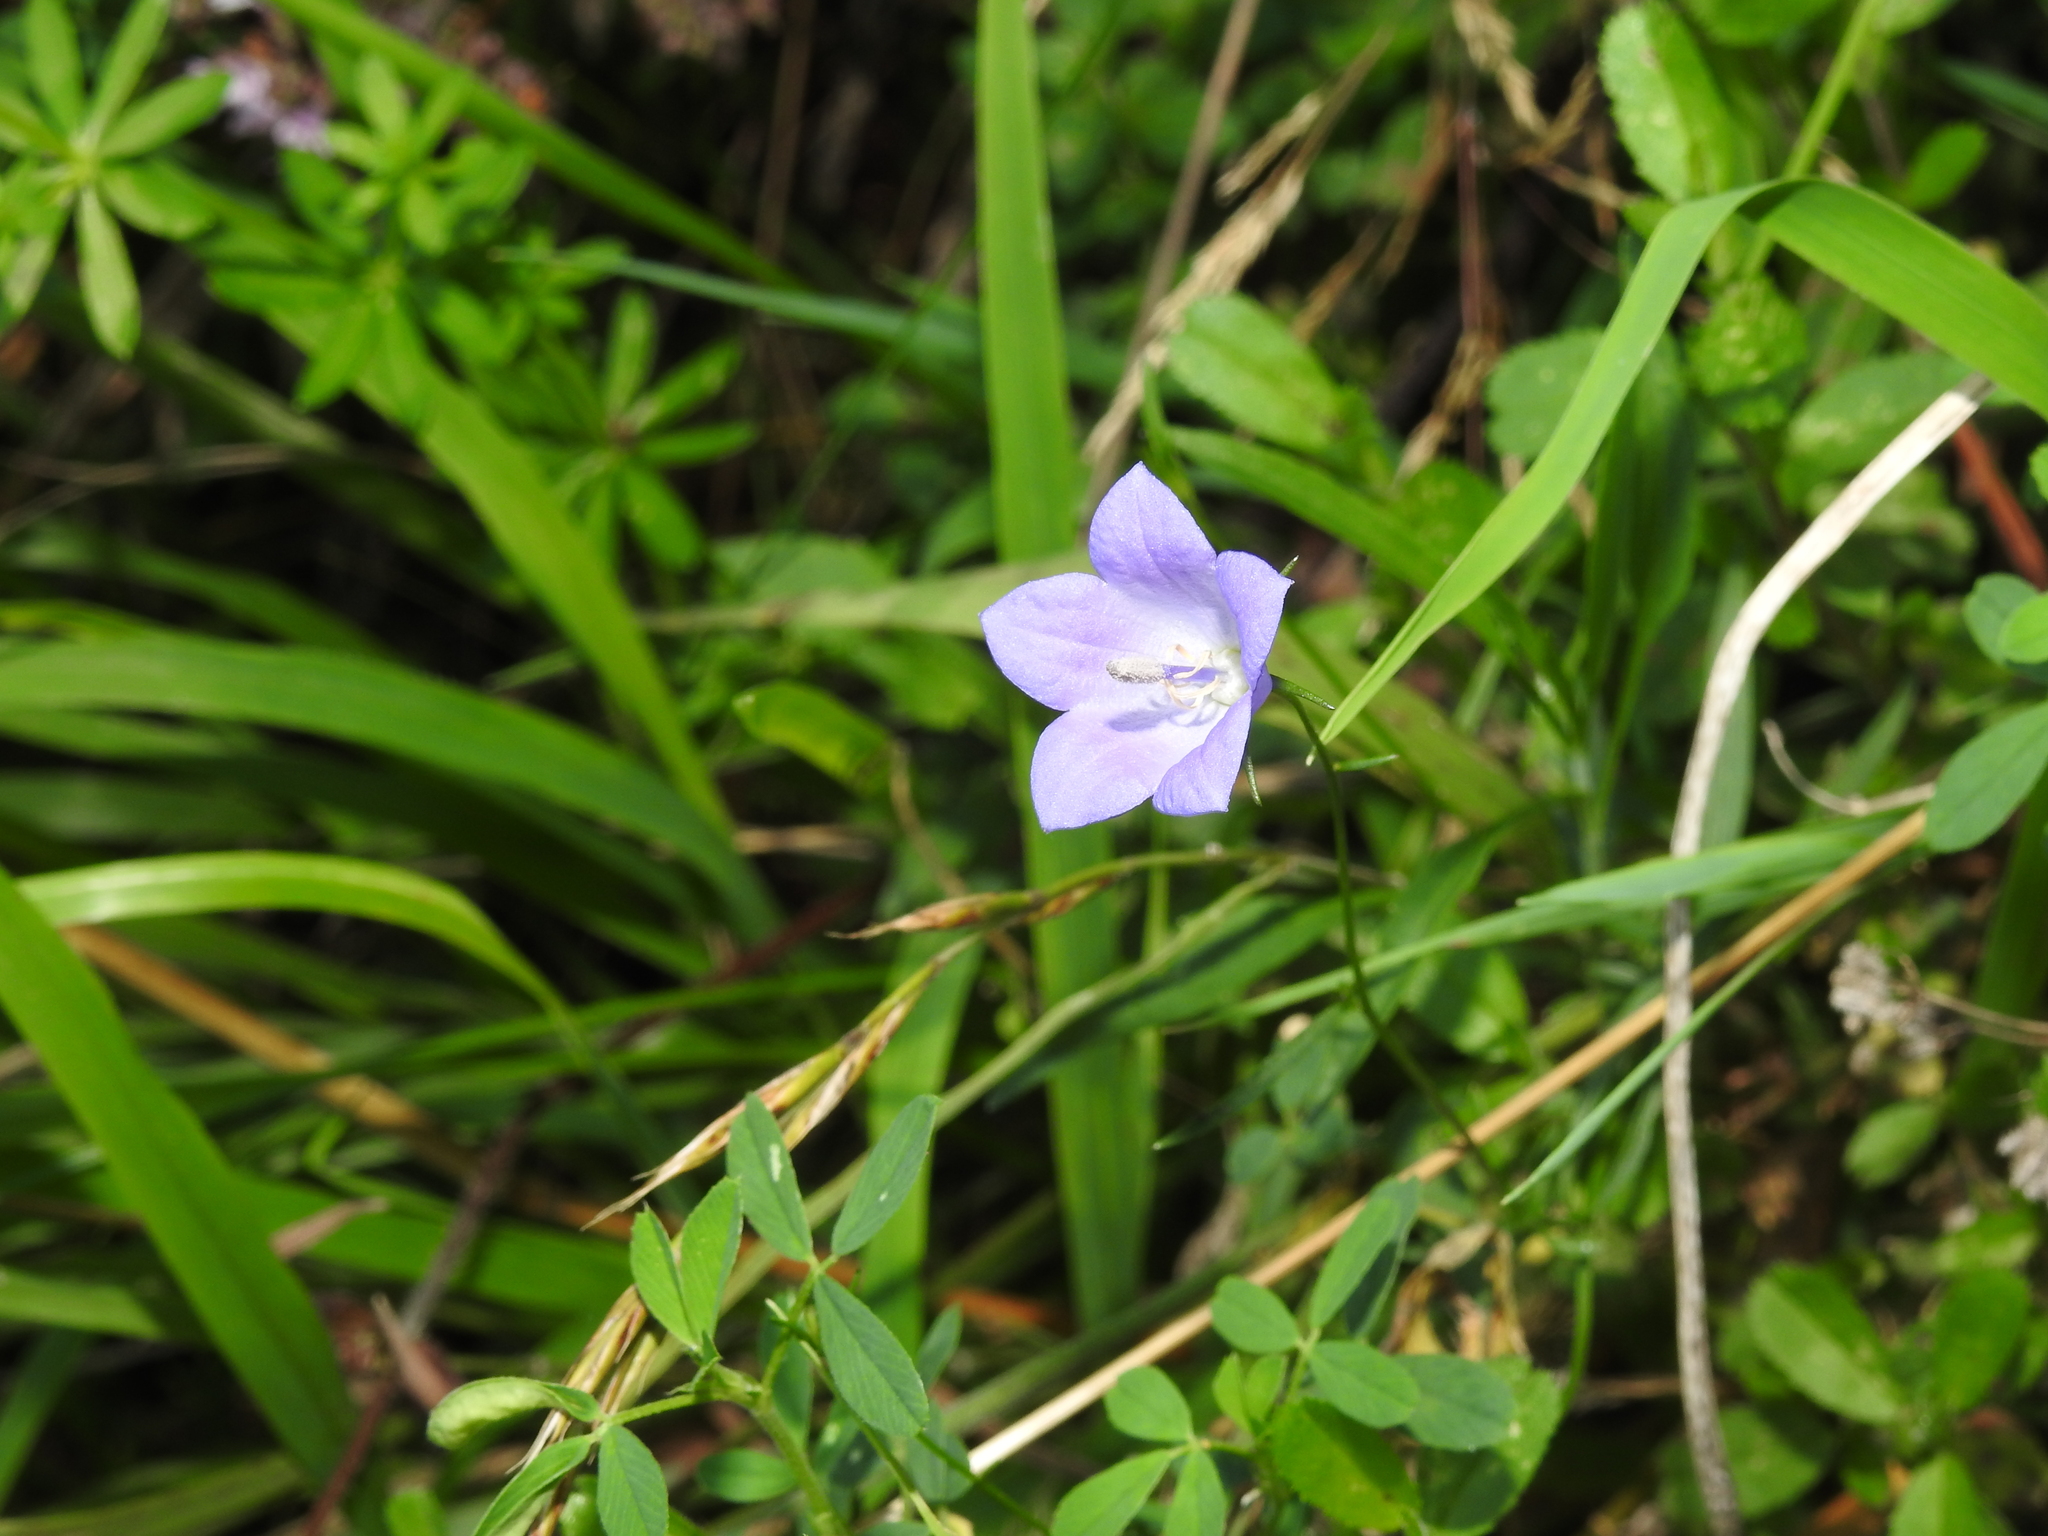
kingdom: Plantae
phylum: Tracheophyta
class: Magnoliopsida
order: Asterales
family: Campanulaceae
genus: Campanula
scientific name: Campanula rotundifolia
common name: Harebell
